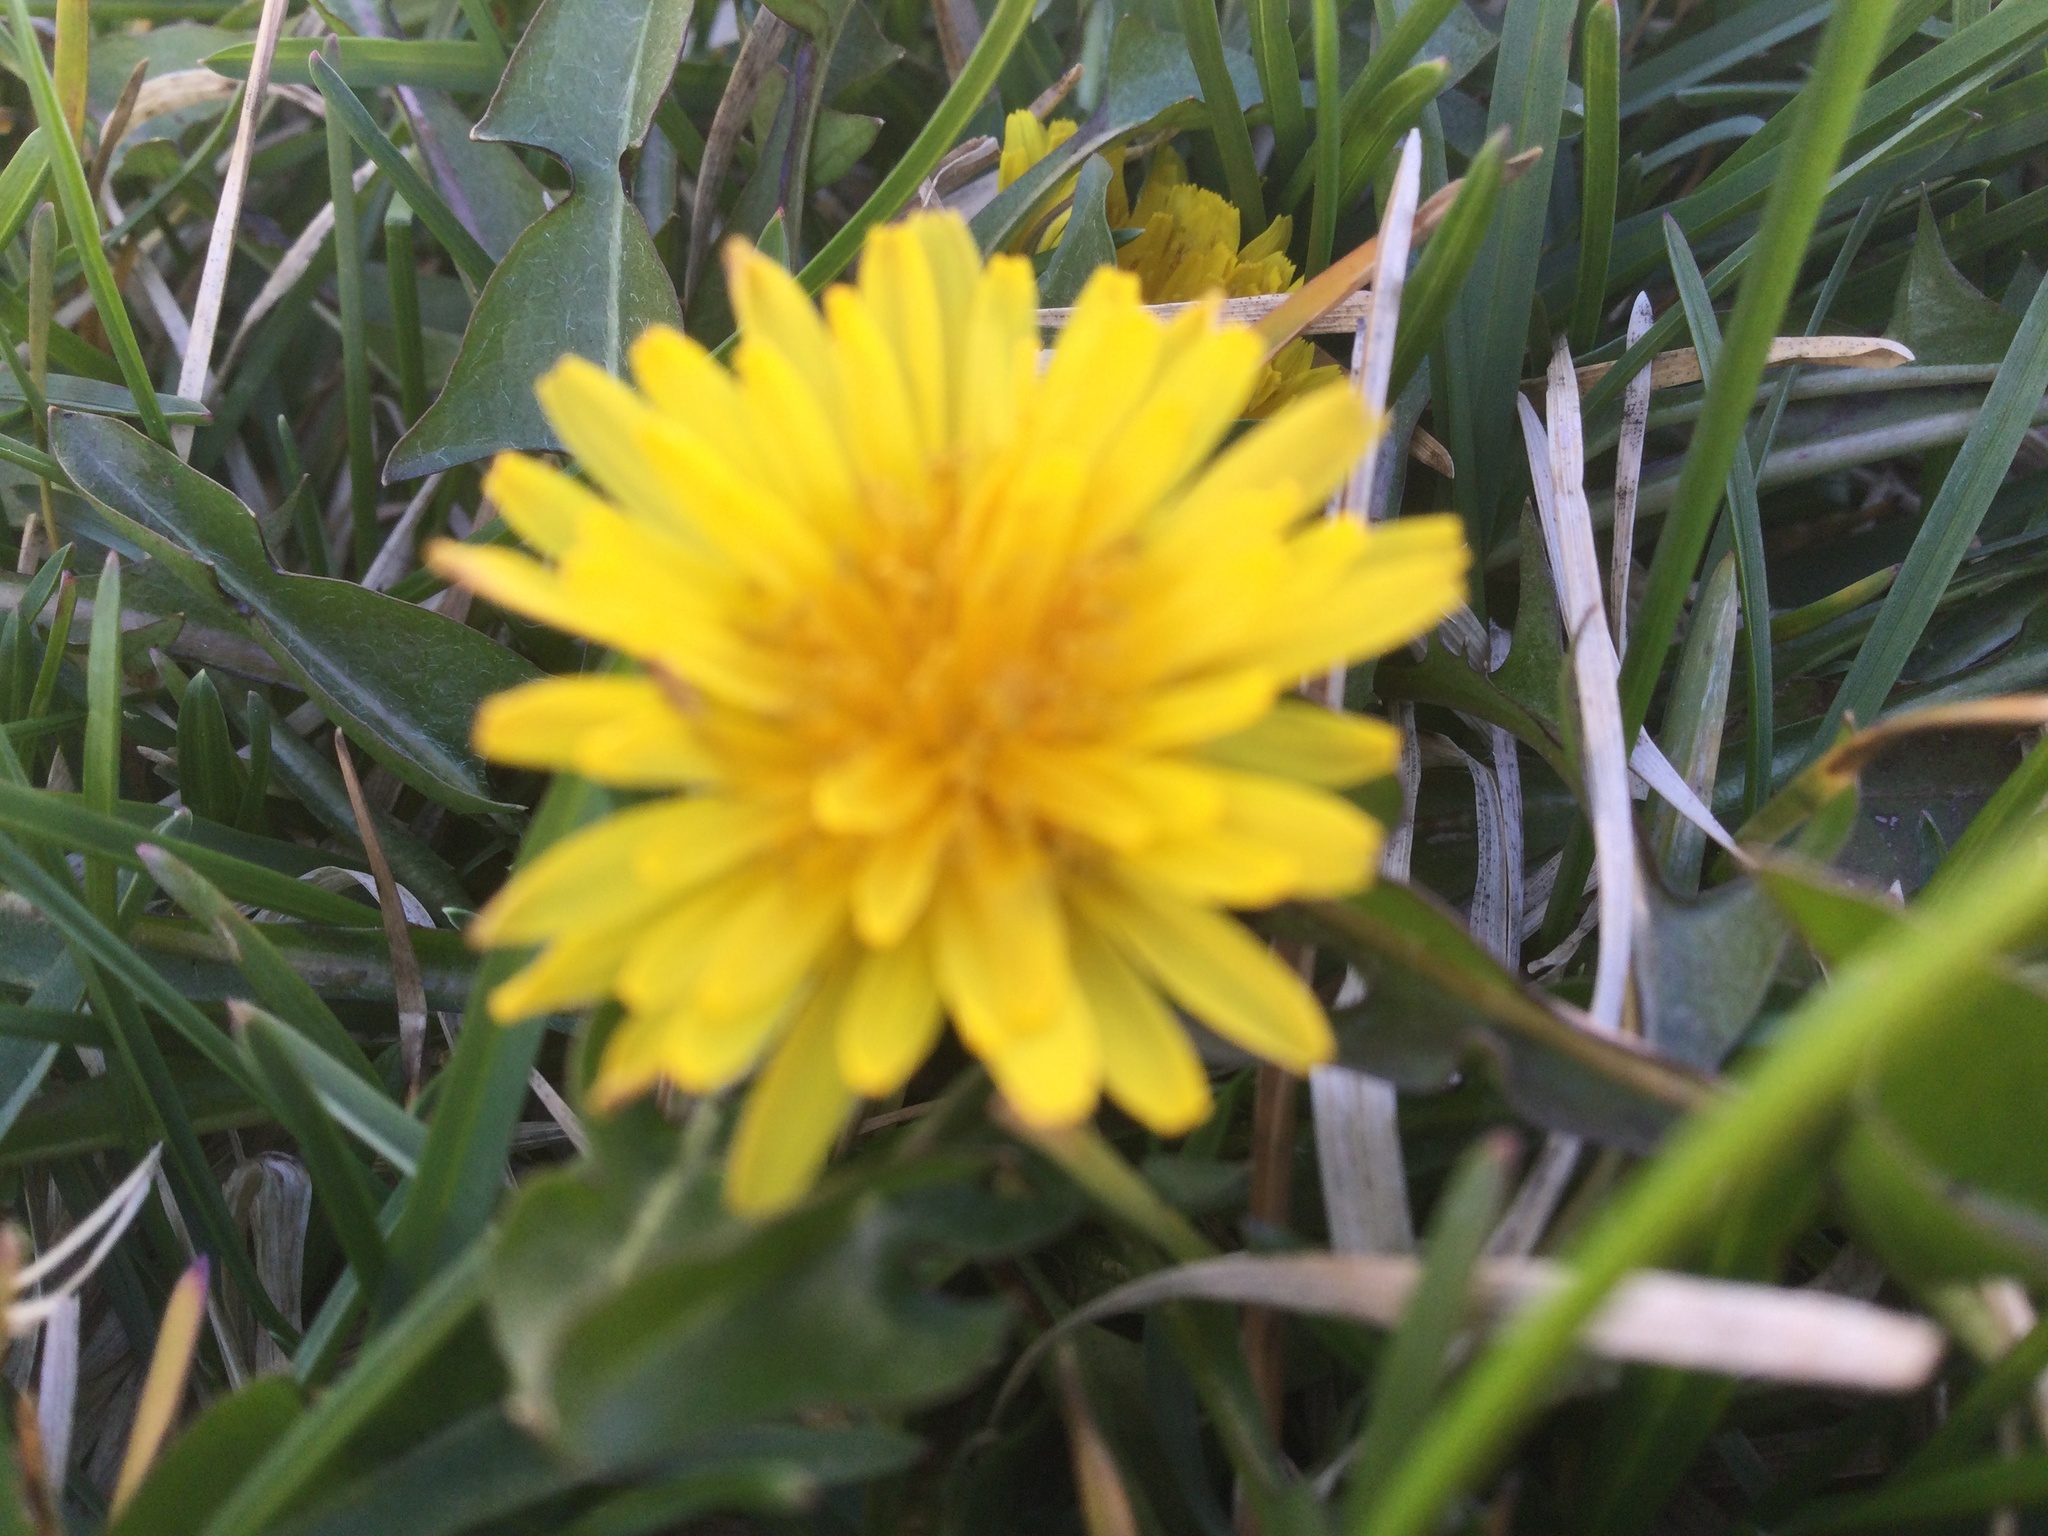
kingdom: Plantae
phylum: Tracheophyta
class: Magnoliopsida
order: Asterales
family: Asteraceae
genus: Taraxacum
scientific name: Taraxacum officinale
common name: Common dandelion
